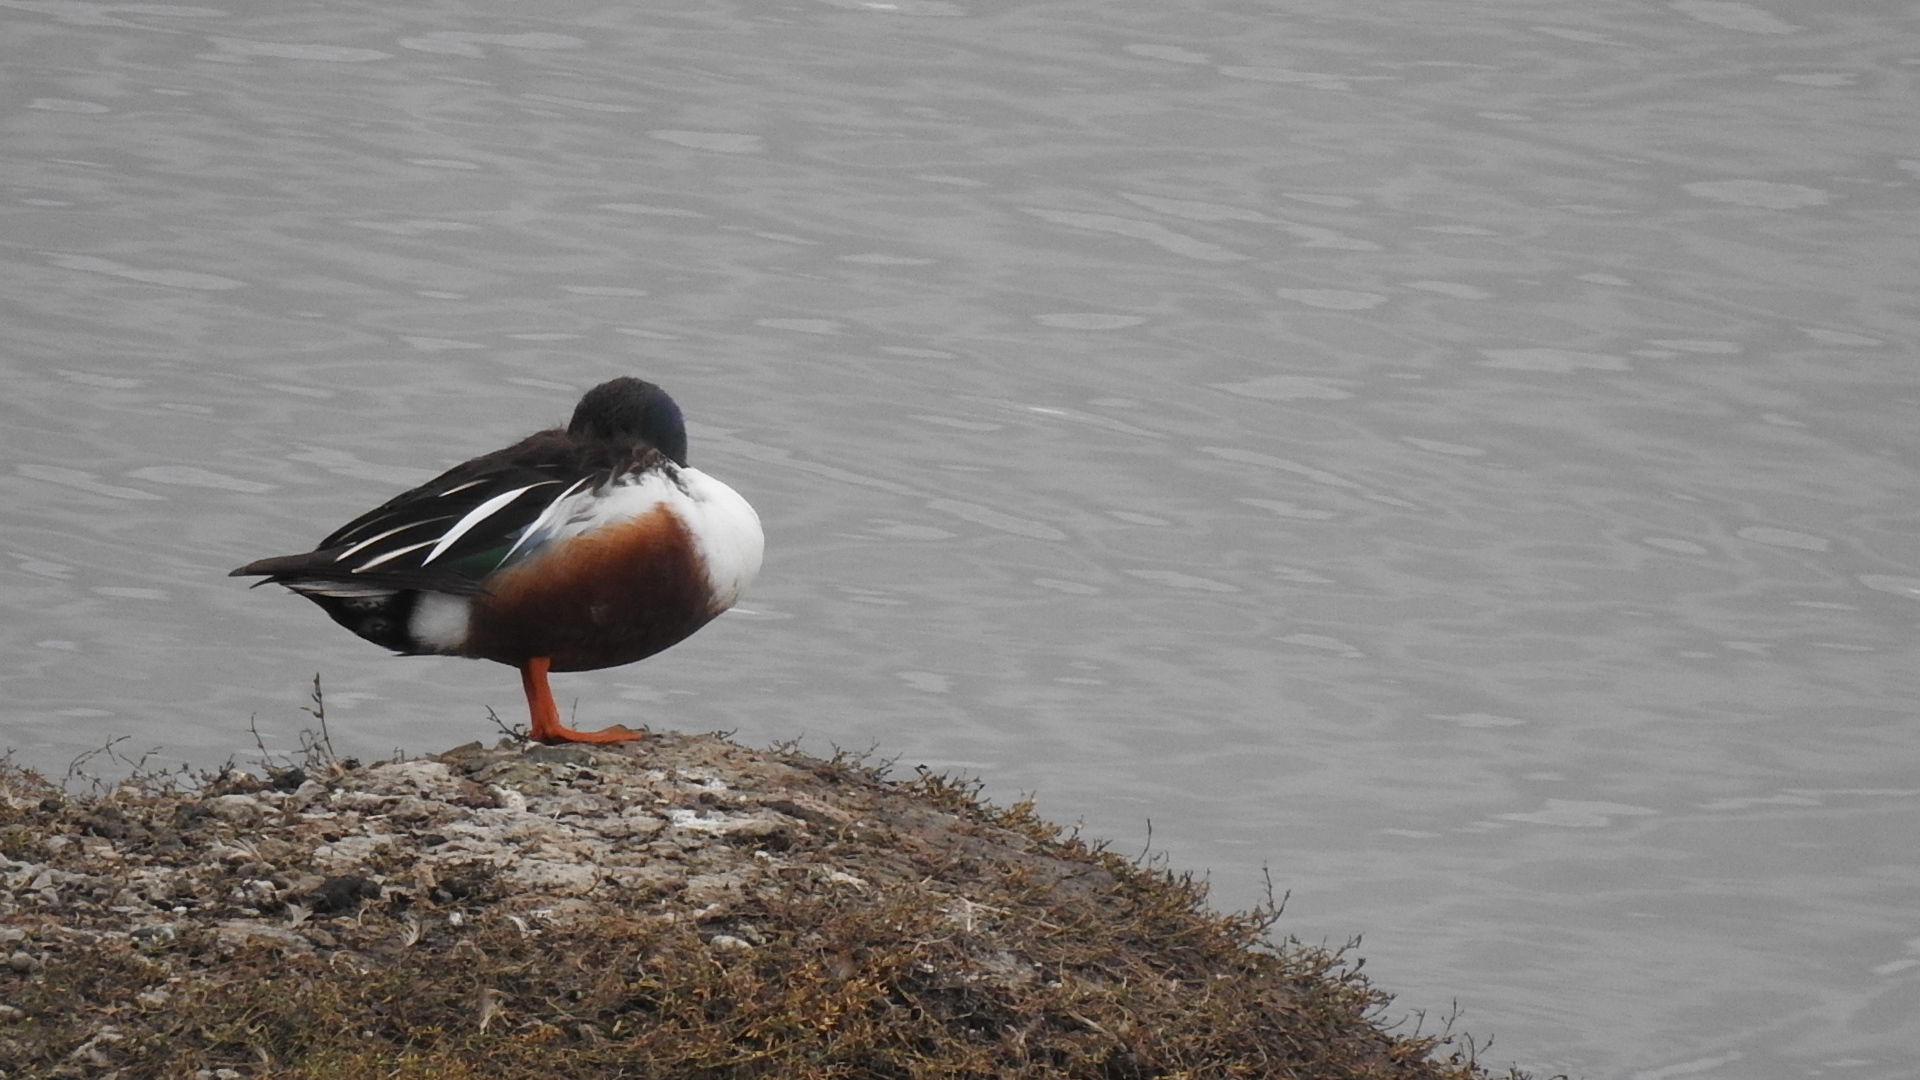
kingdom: Animalia
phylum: Chordata
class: Aves
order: Anseriformes
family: Anatidae
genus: Spatula
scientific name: Spatula clypeata
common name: Northern shoveler
